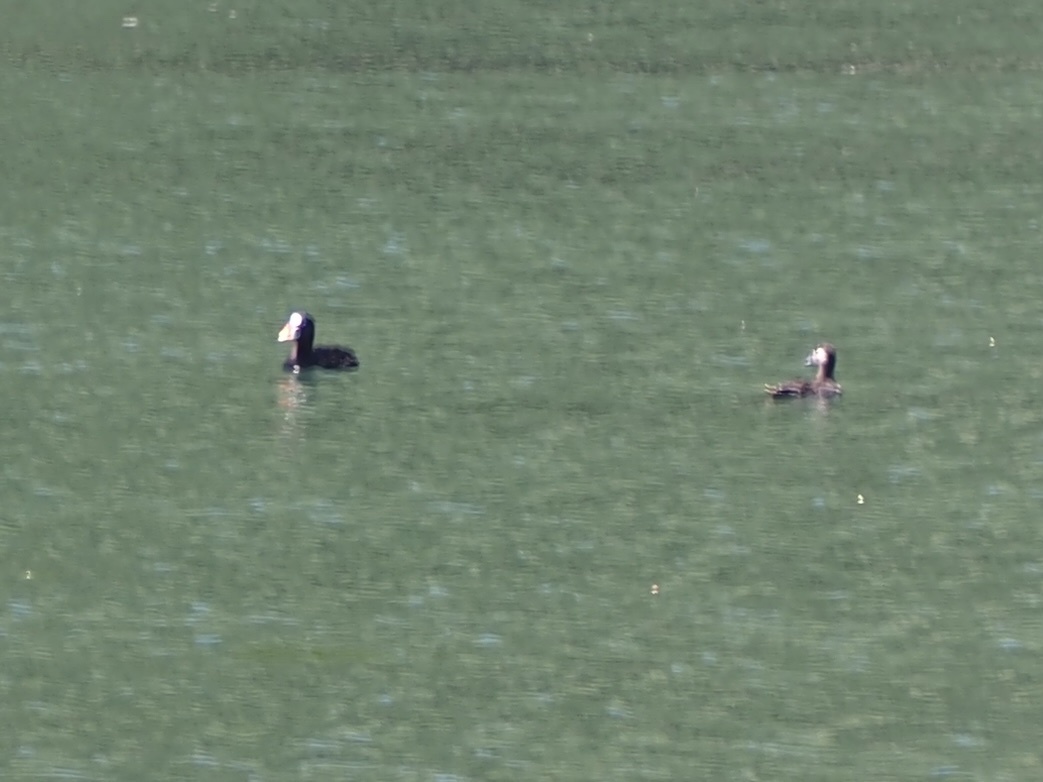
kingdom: Animalia
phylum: Chordata
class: Aves
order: Anseriformes
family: Anatidae
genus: Melanitta
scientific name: Melanitta perspicillata
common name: Surf scoter
